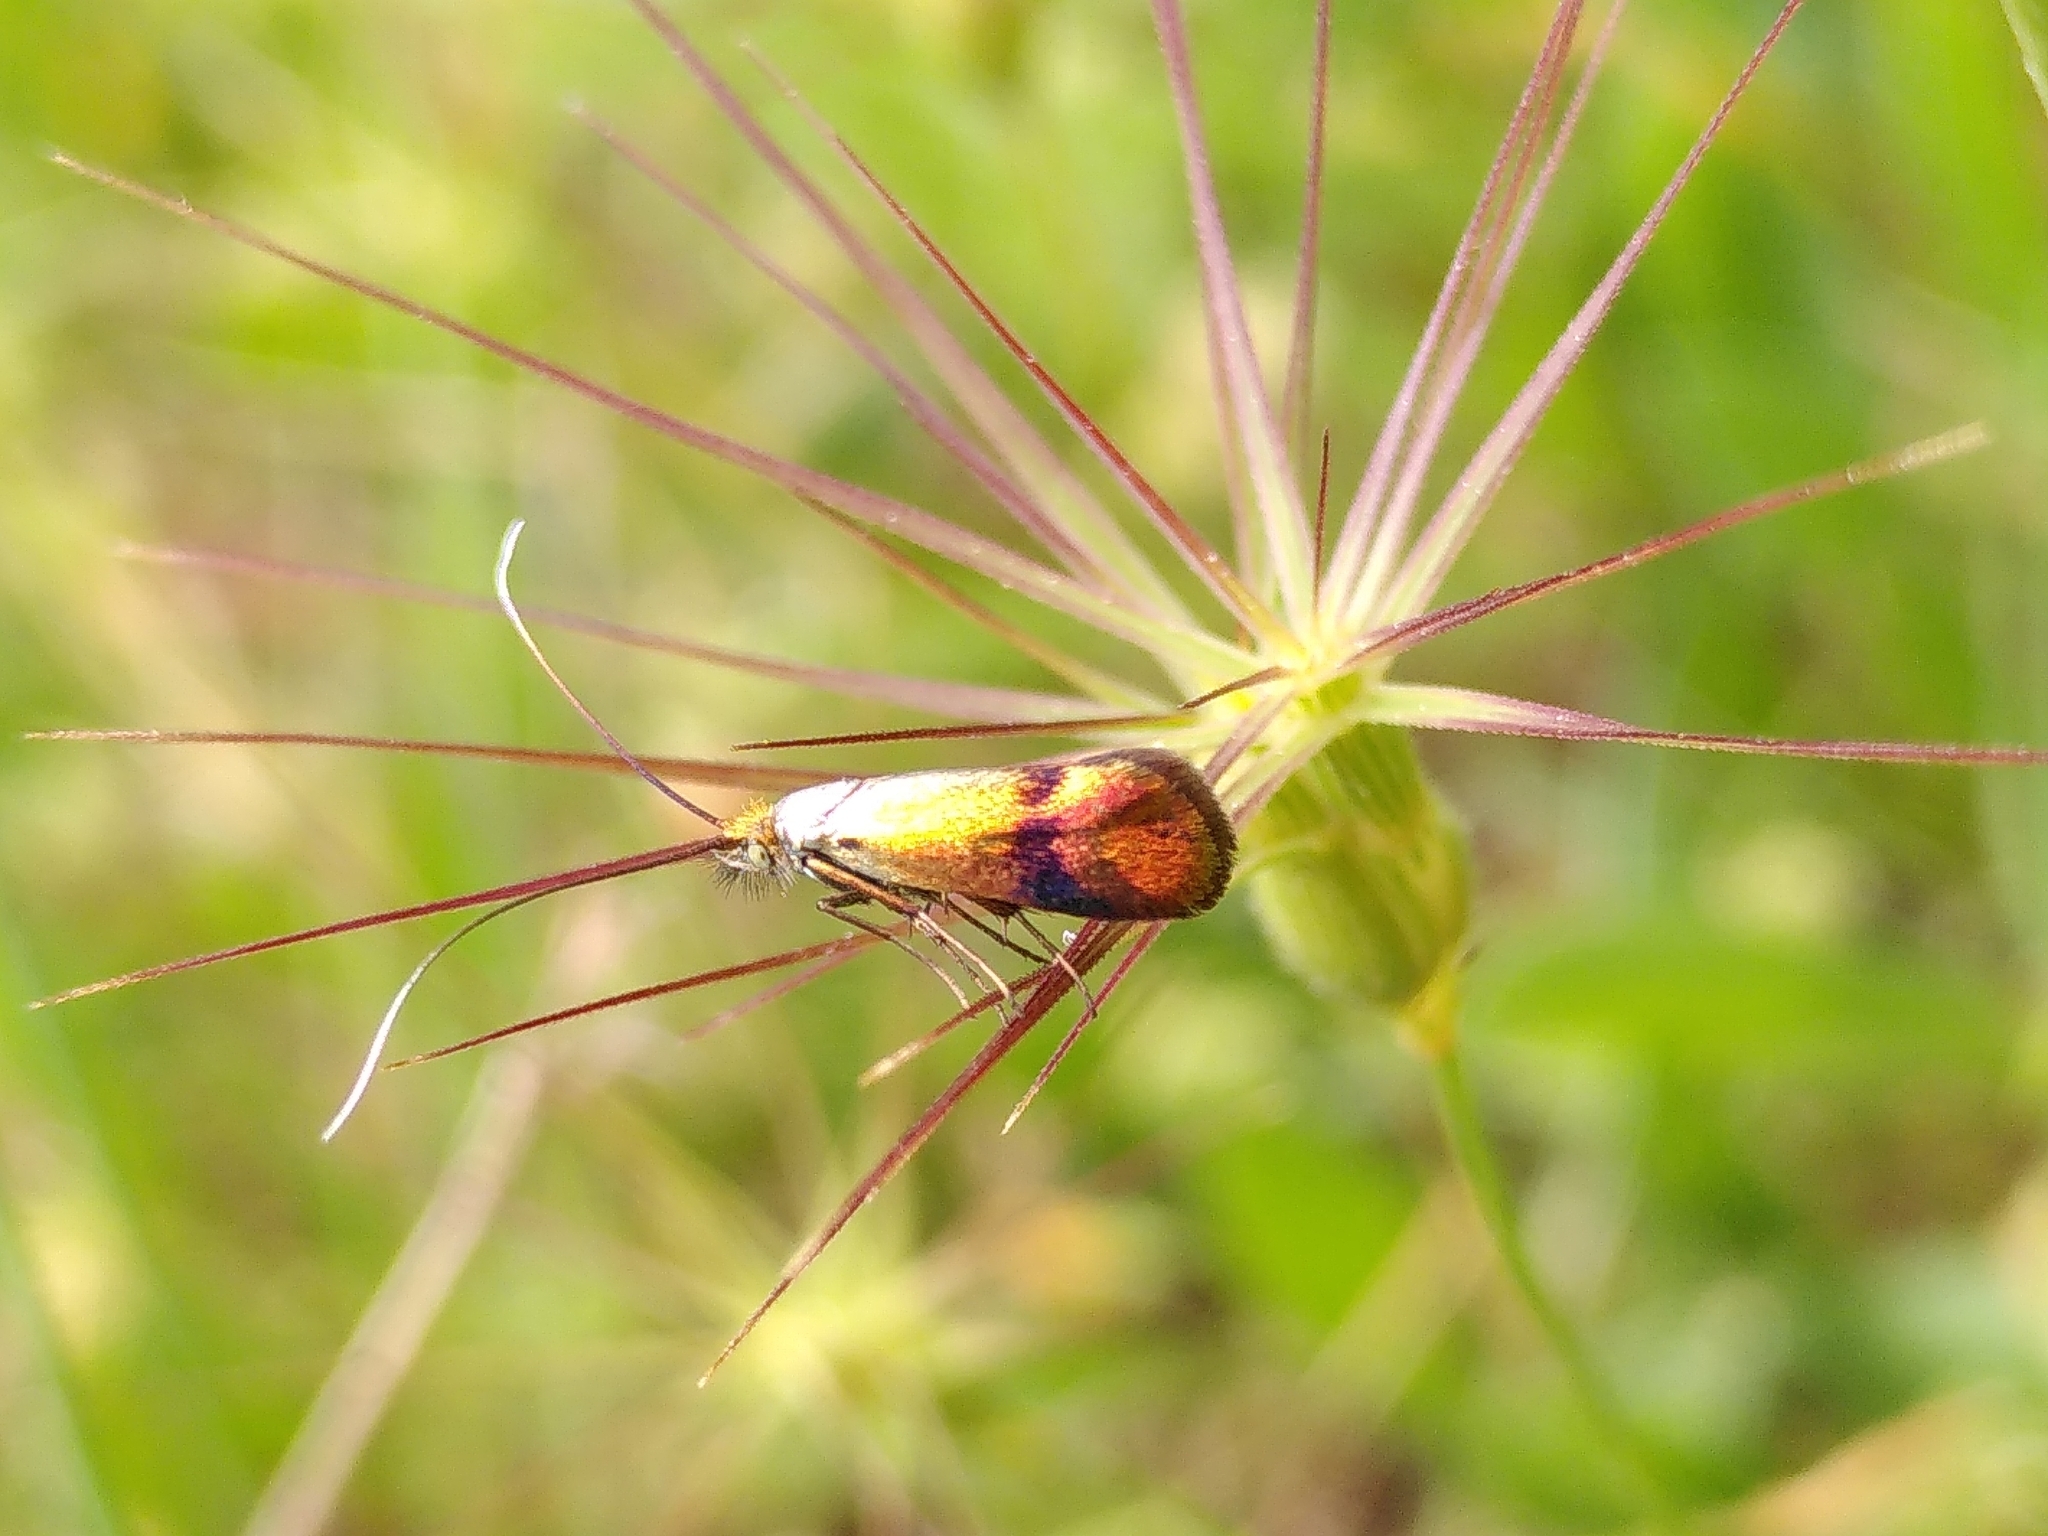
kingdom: Animalia
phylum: Arthropoda
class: Insecta
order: Lepidoptera
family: Adelidae
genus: Nemophora
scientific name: Nemophora fasciella
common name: Horehound long-horn
